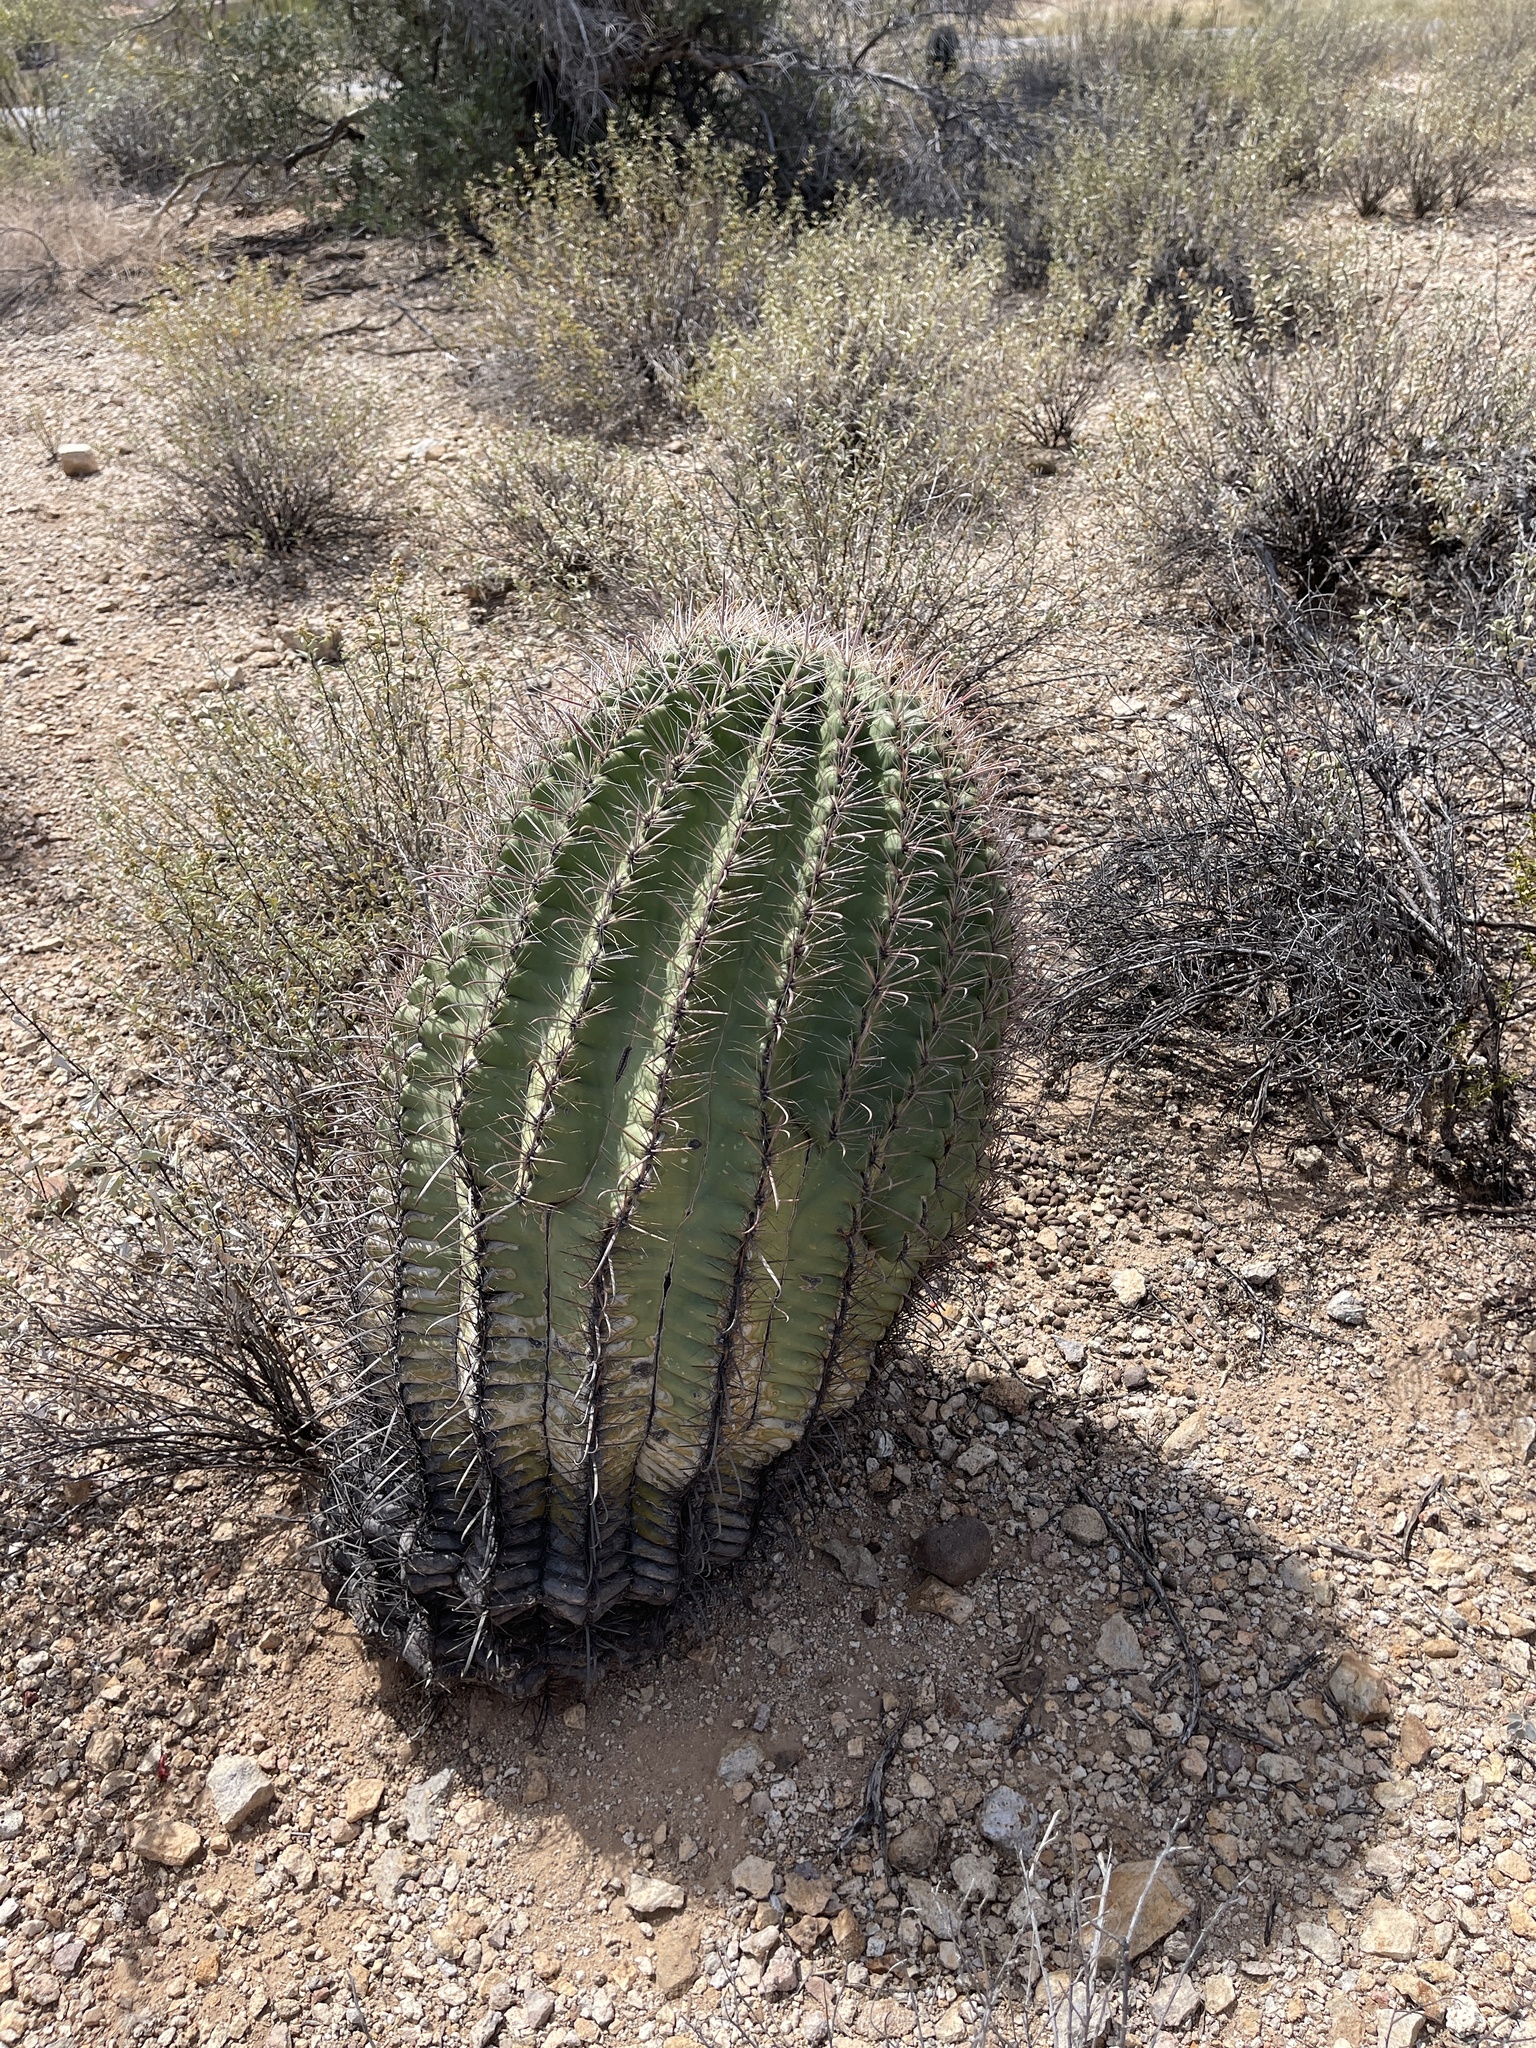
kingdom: Plantae
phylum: Tracheophyta
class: Magnoliopsida
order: Caryophyllales
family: Cactaceae
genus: Ferocactus
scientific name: Ferocactus wislizeni
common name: Candy barrel cactus
